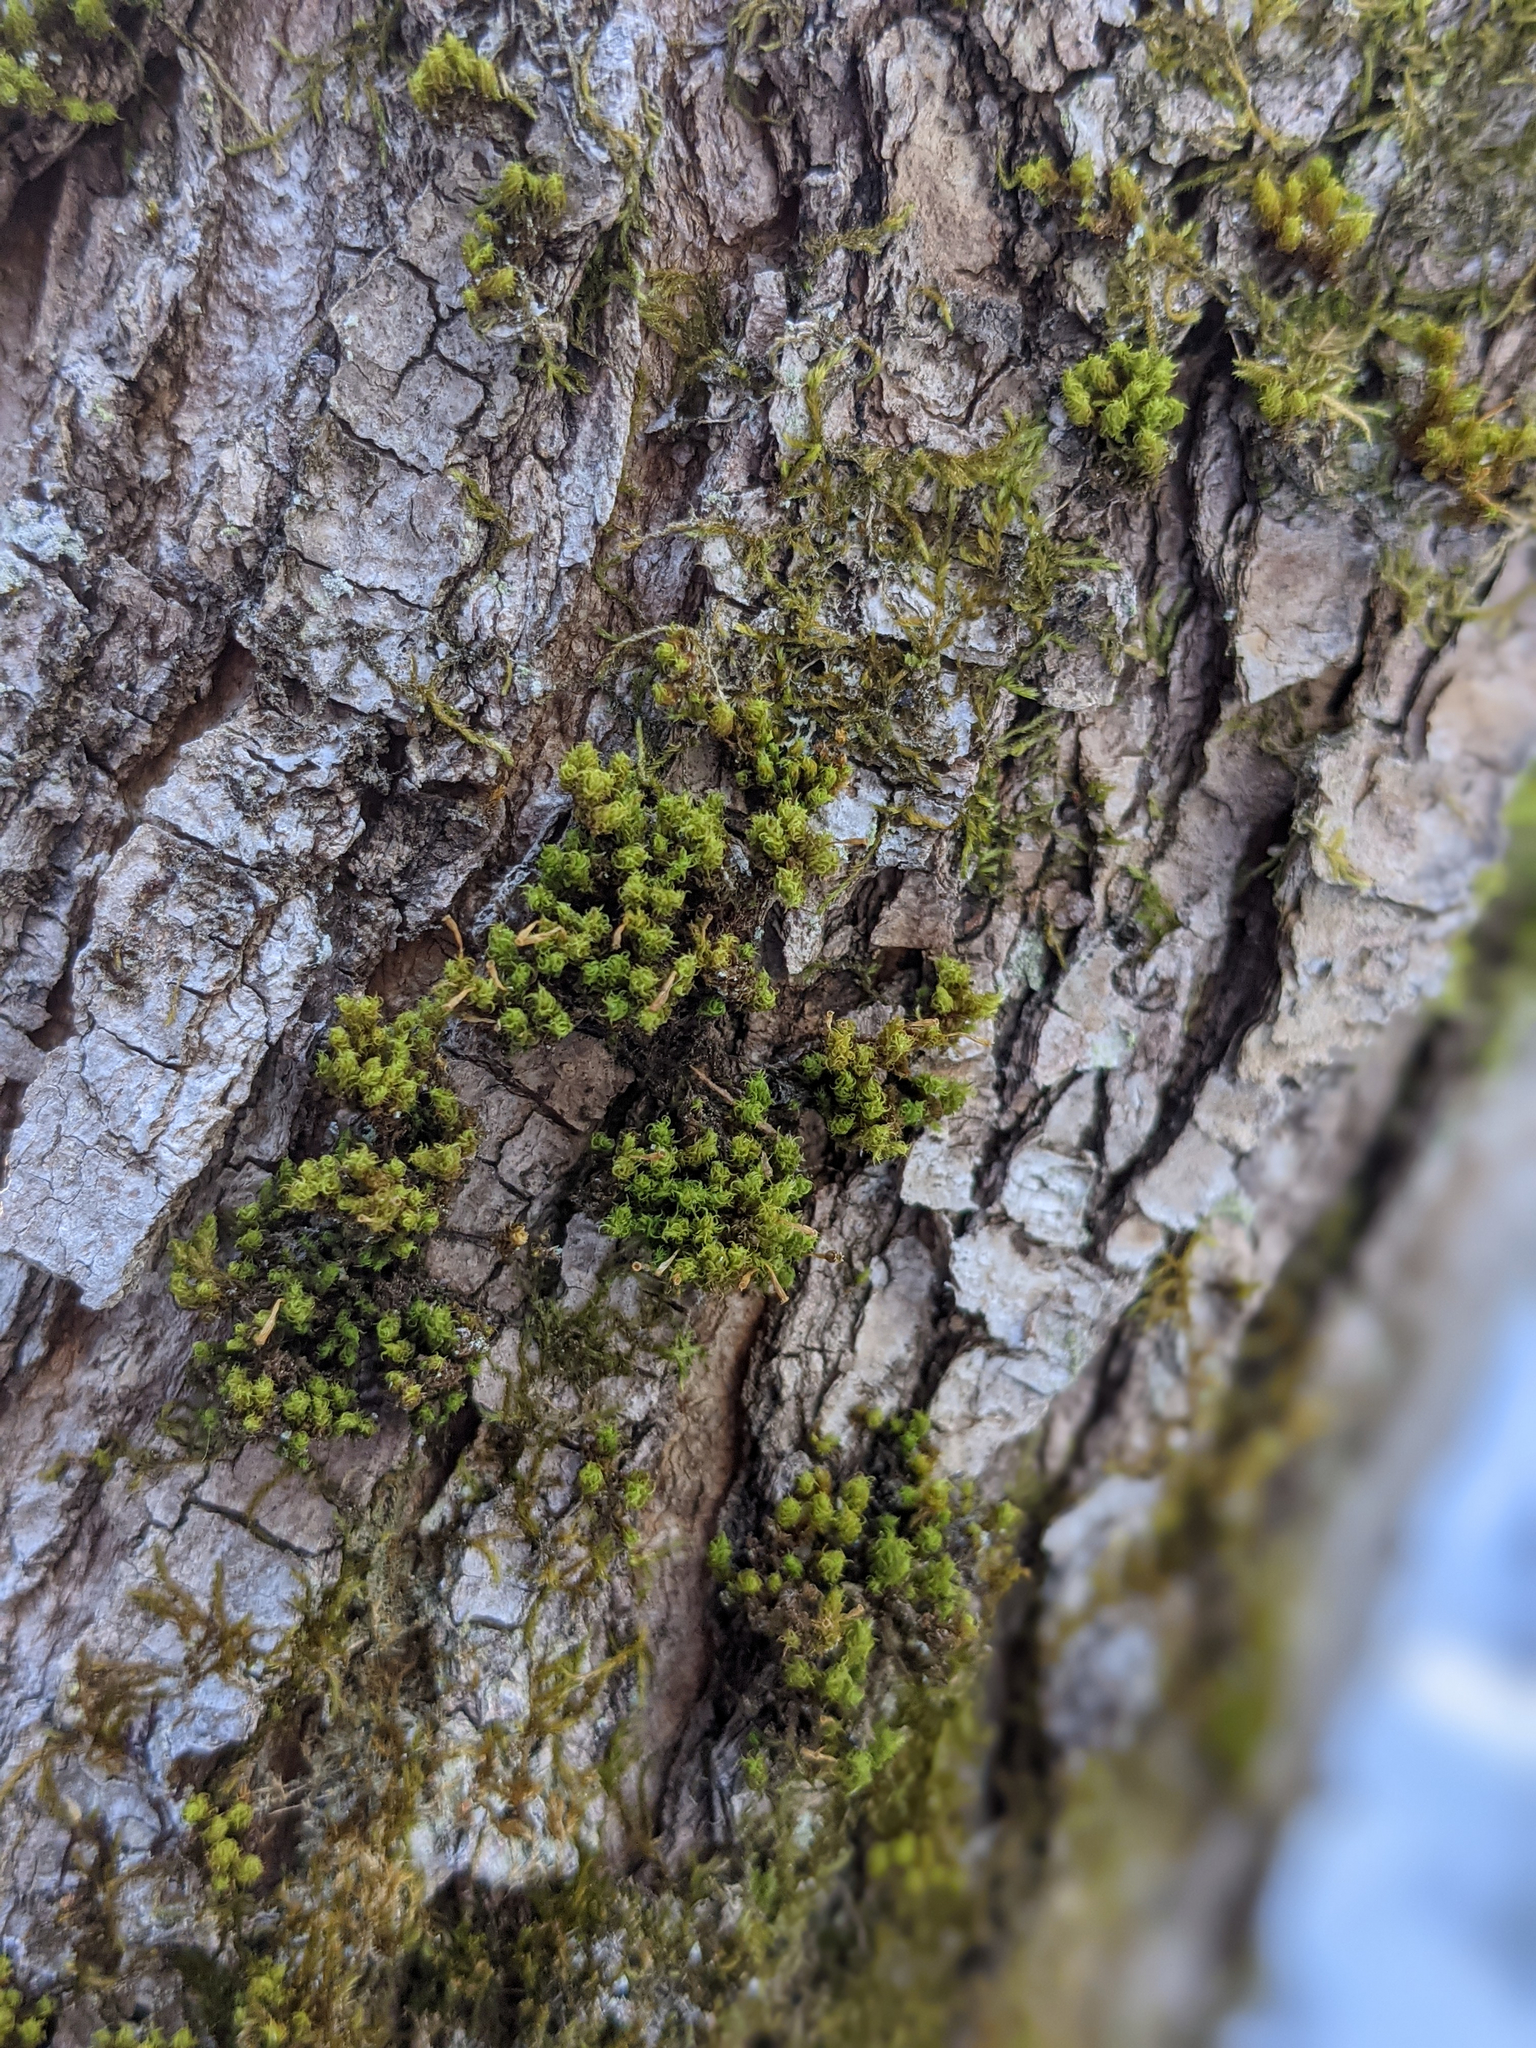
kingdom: Plantae
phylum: Bryophyta
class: Bryopsida
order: Orthotrichales
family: Orthotrichaceae
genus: Ulota
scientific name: Ulota crispa
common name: Crisped pincushion moss
